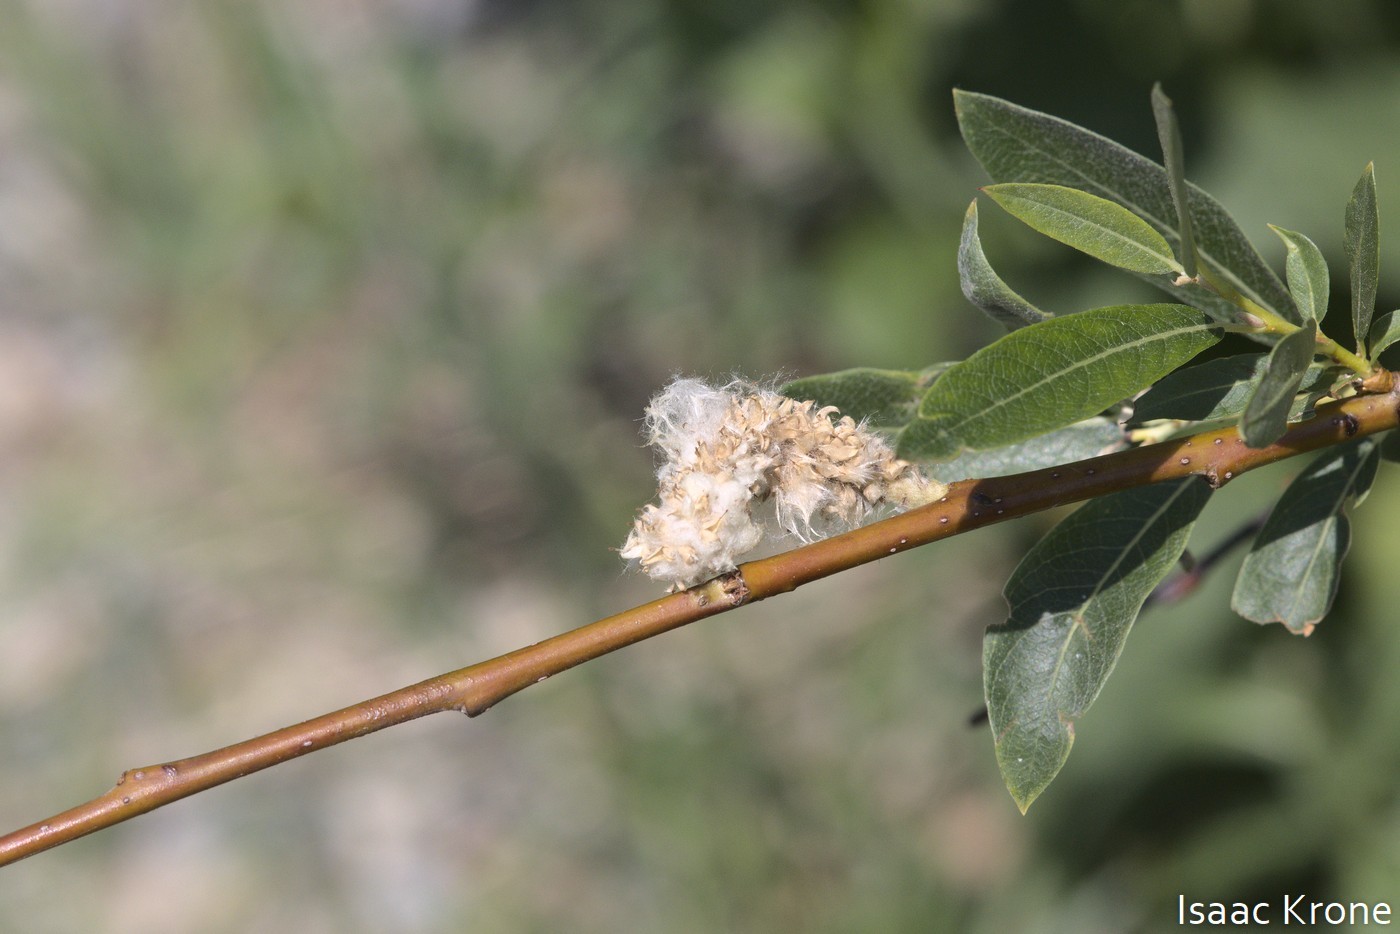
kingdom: Plantae
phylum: Tracheophyta
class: Magnoliopsida
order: Malpighiales
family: Salicaceae
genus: Salix
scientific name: Salix drummondiana
